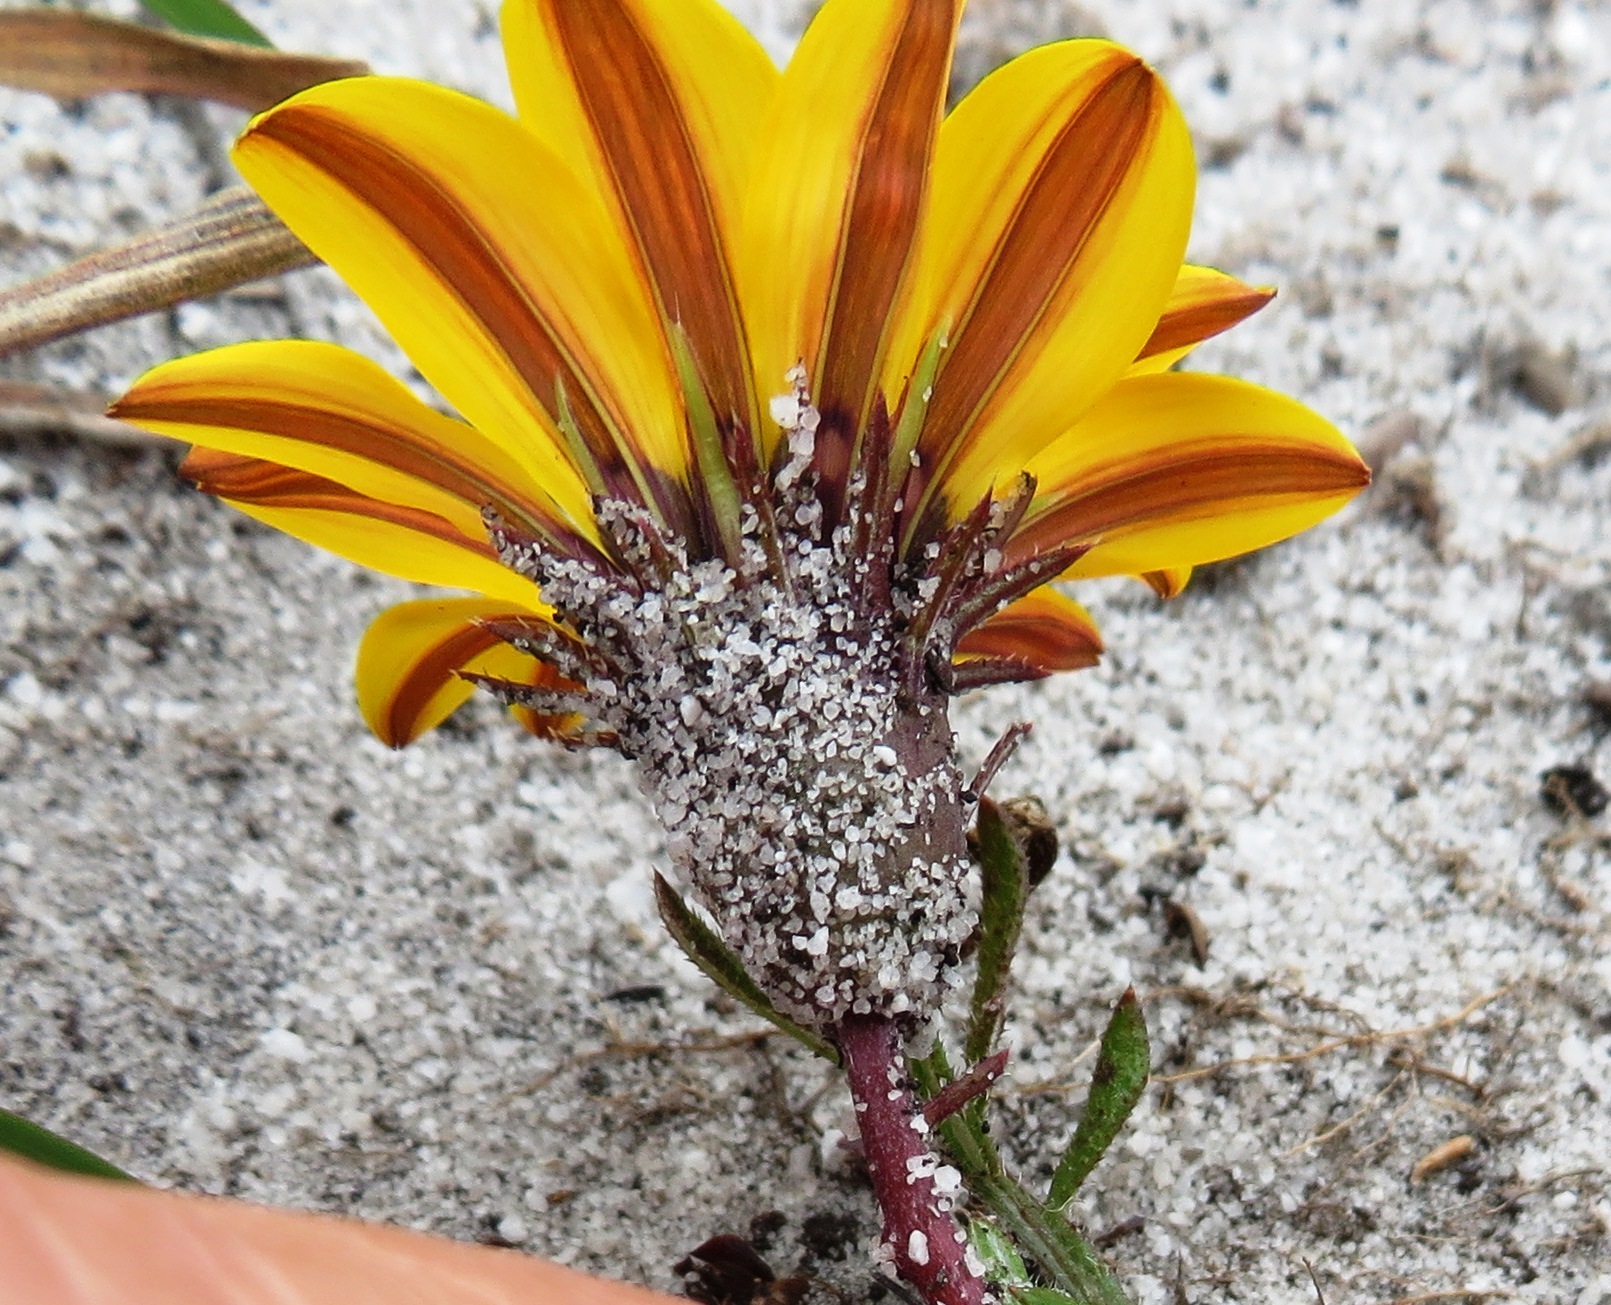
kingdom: Plantae
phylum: Tracheophyta
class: Magnoliopsida
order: Asterales
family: Asteraceae
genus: Gazania
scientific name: Gazania serrata
